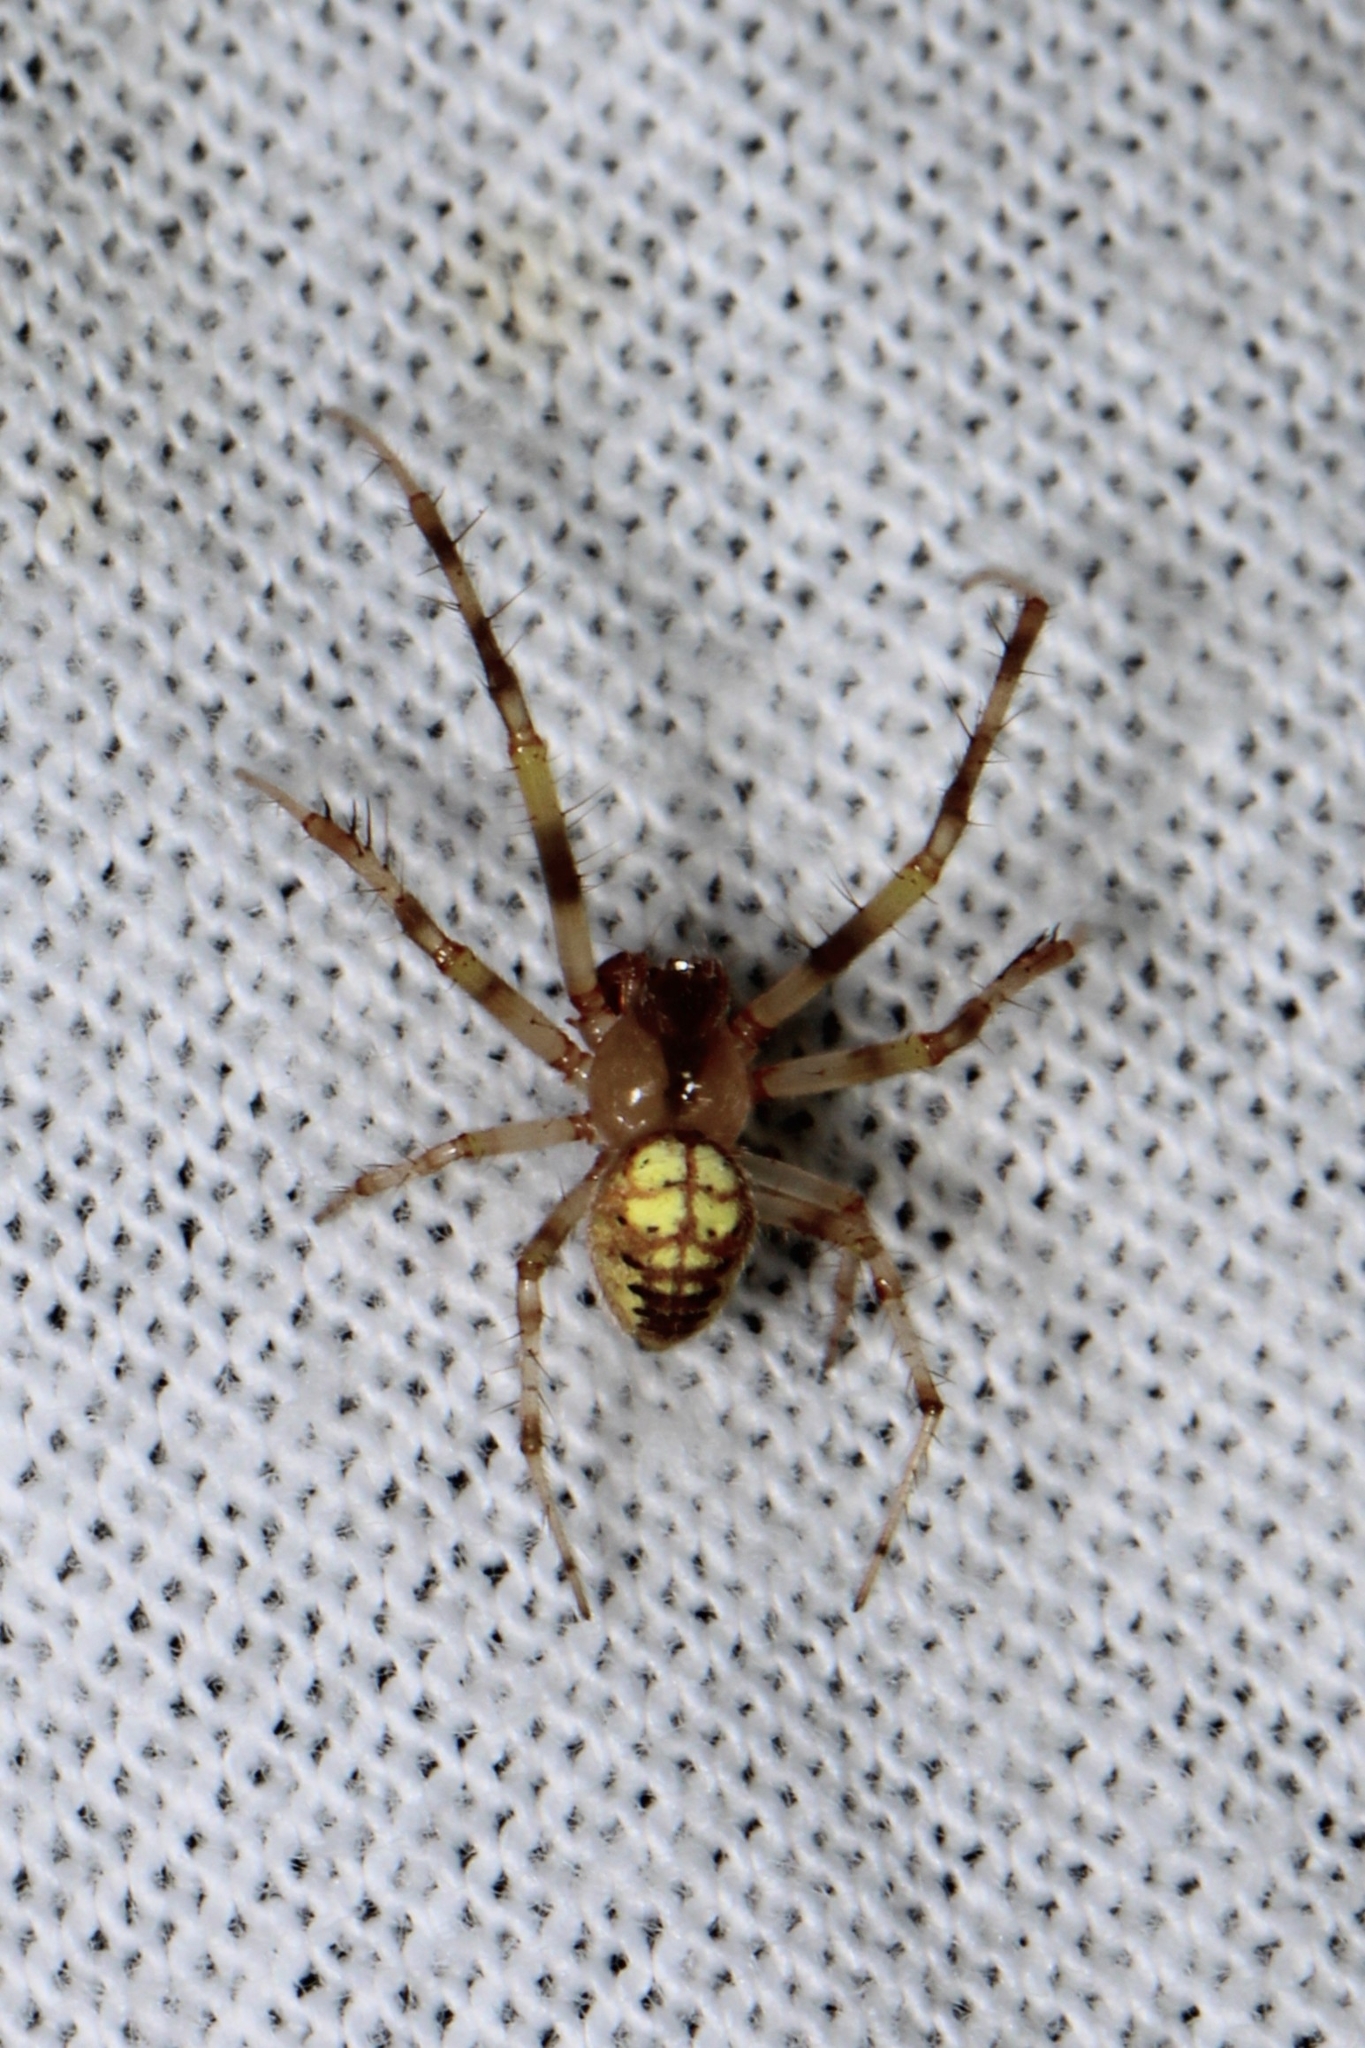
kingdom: Animalia
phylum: Arthropoda
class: Arachnida
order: Araneae
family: Araneidae
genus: Araneus
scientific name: Araneus thaddeus
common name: Lattice orbweaver
